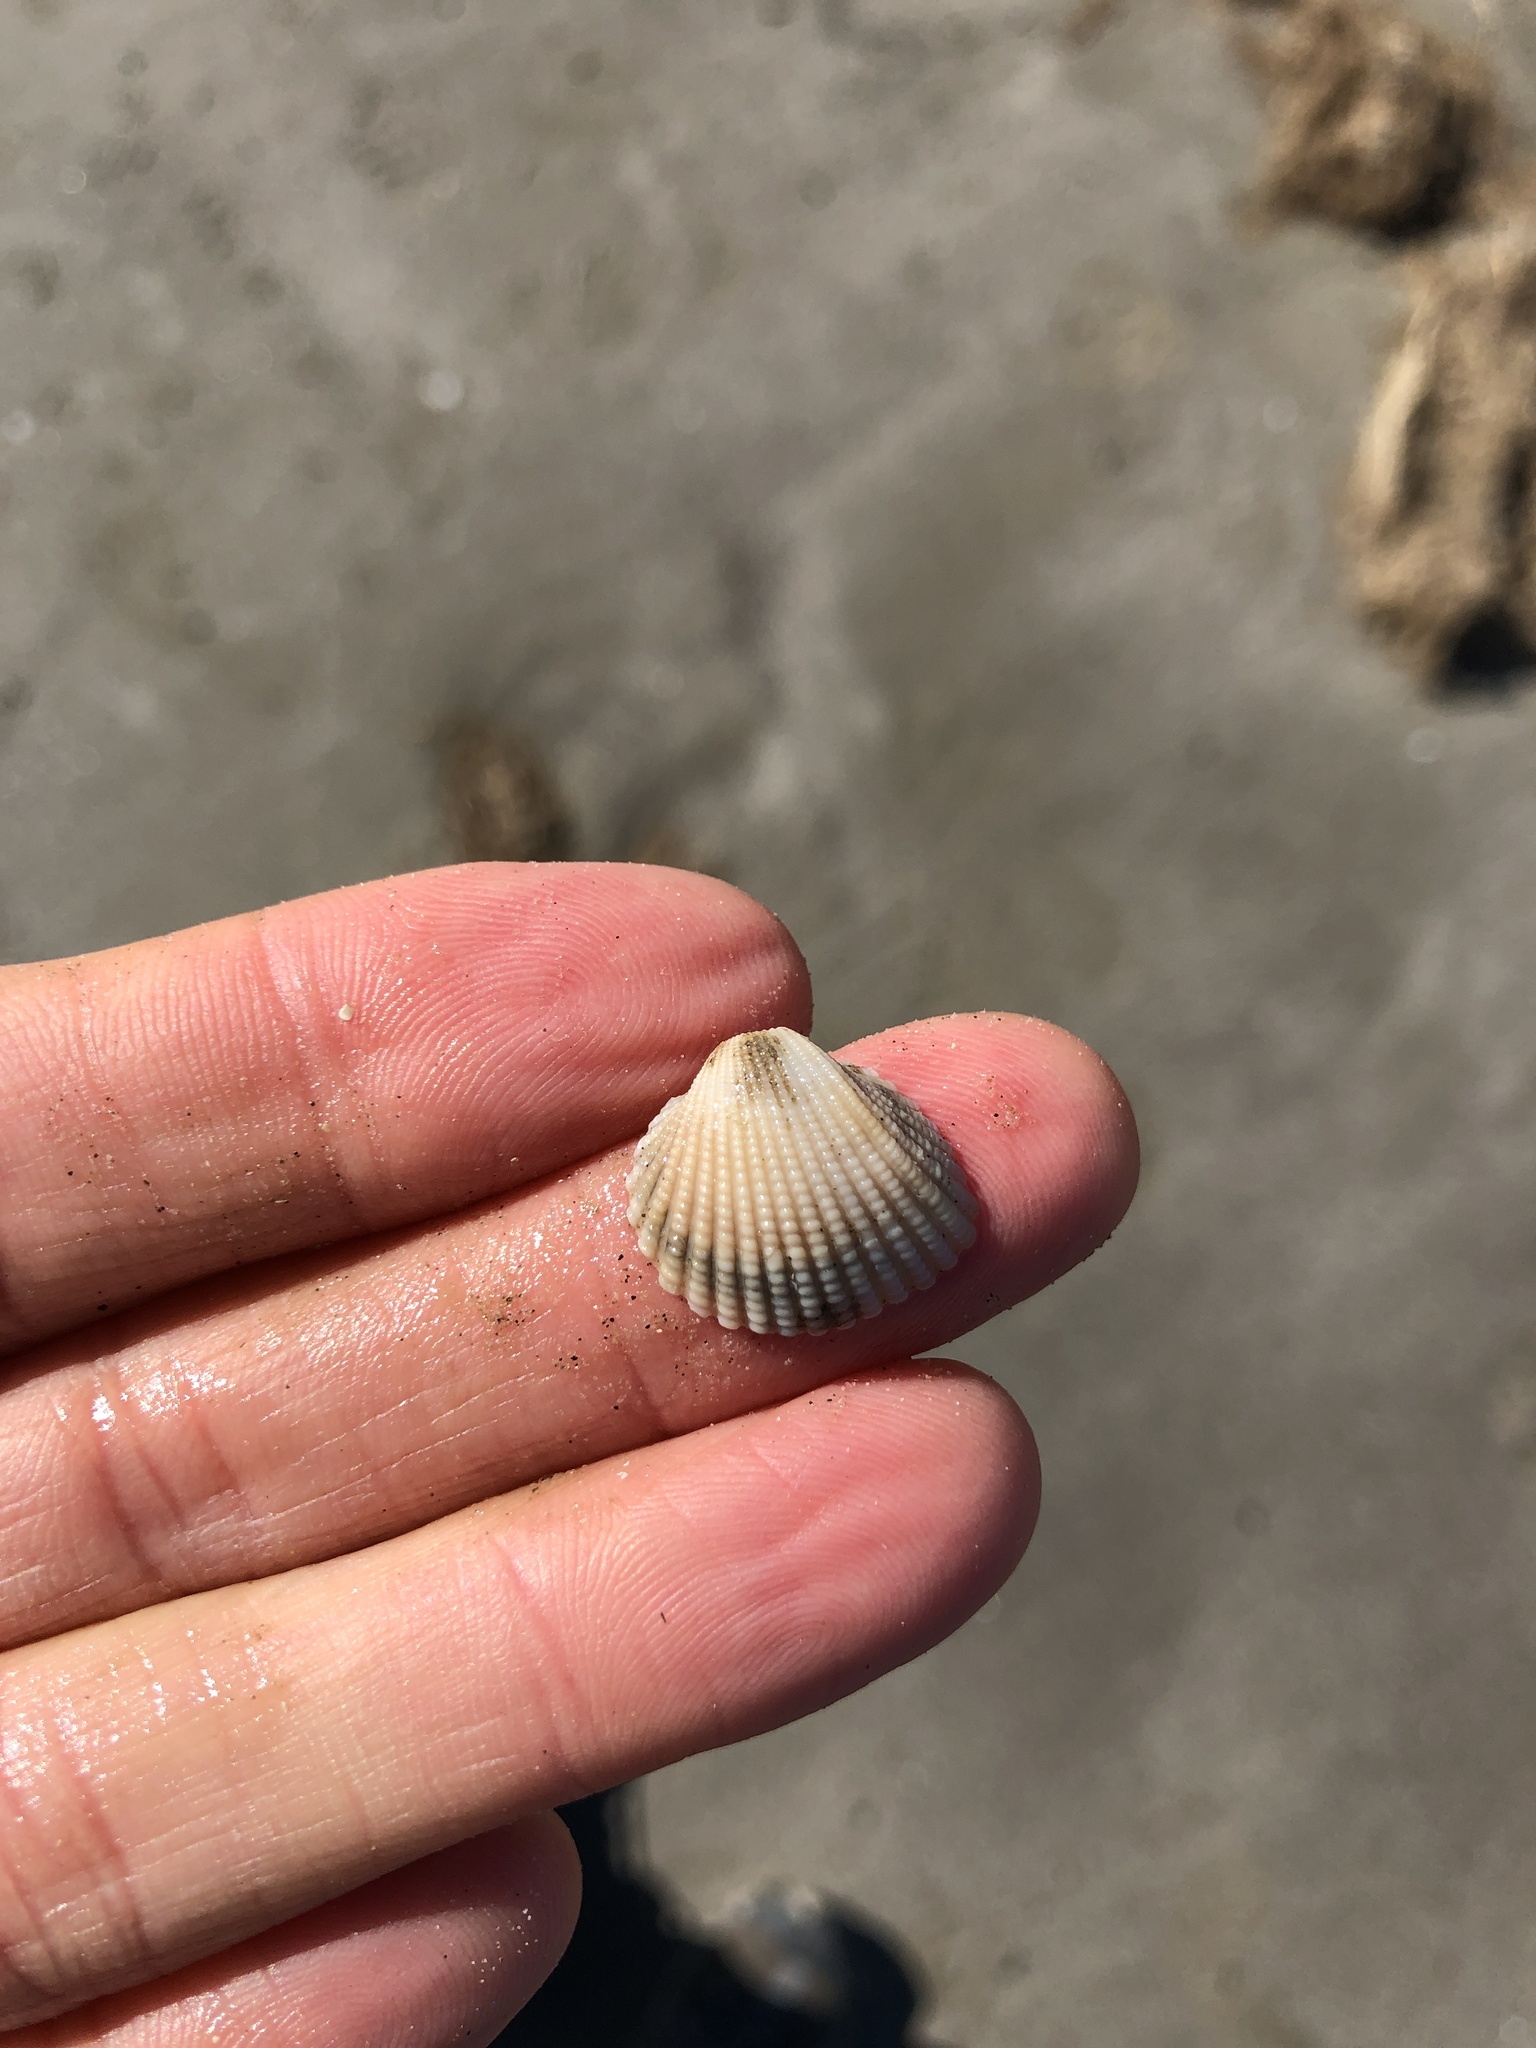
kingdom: Animalia
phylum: Mollusca
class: Bivalvia
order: Arcida
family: Arcidae
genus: Anadara
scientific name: Anadara brasiliana
